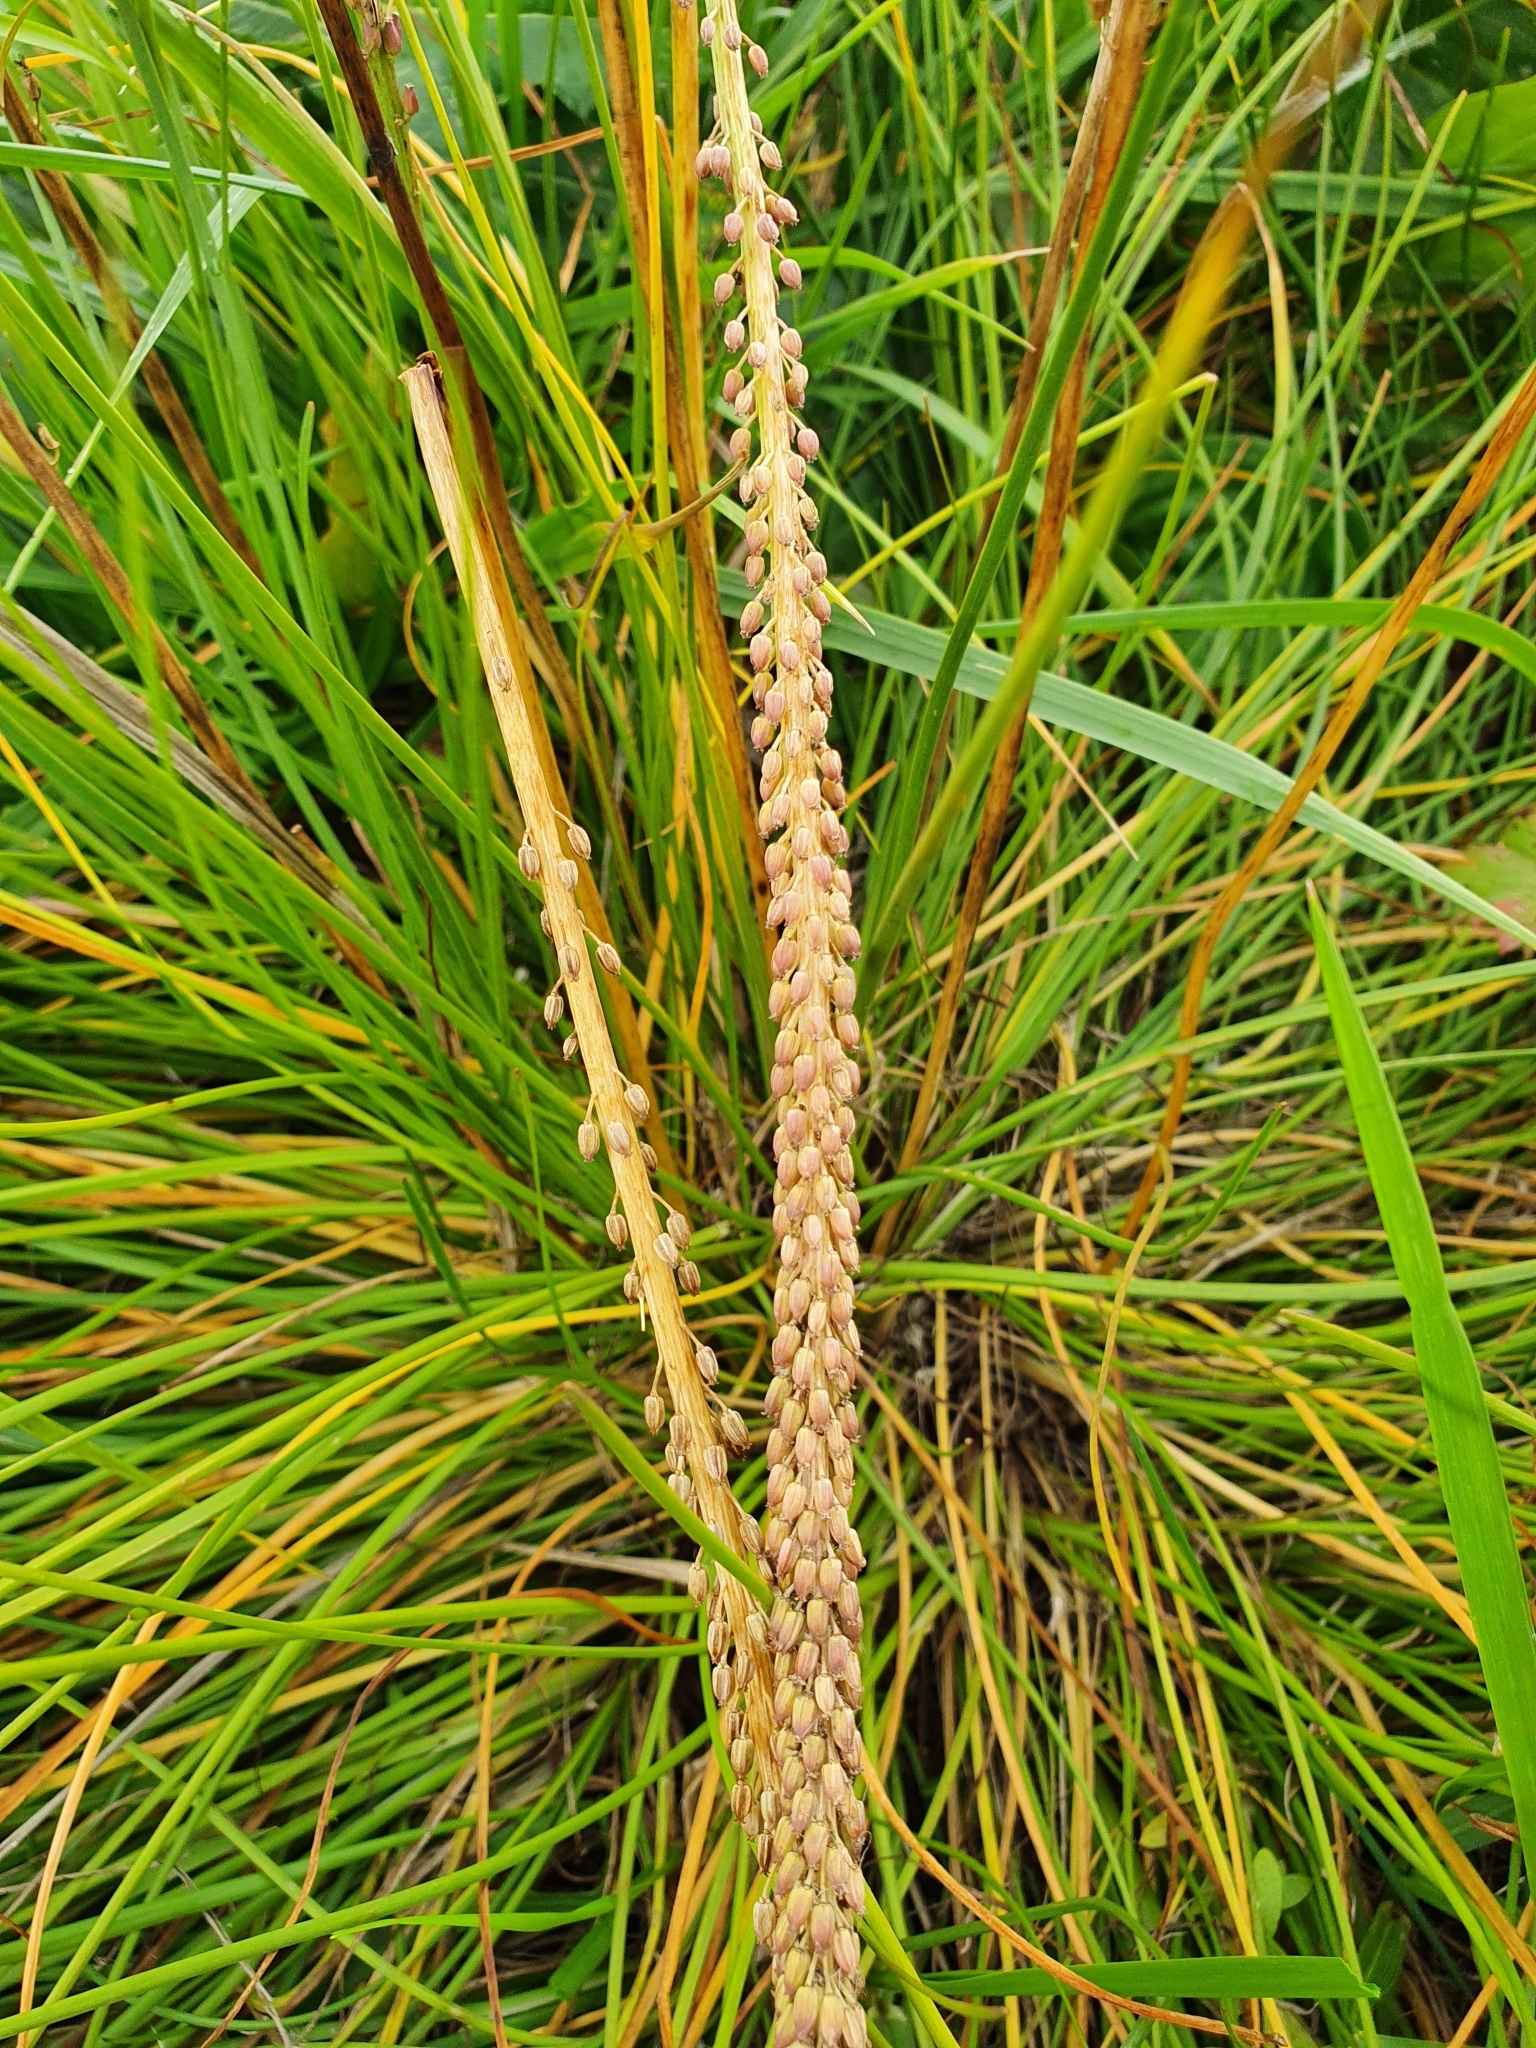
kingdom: Plantae
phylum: Tracheophyta
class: Liliopsida
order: Alismatales
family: Juncaginaceae
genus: Triglochin
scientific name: Triglochin maritima
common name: Sea arrowgrass
